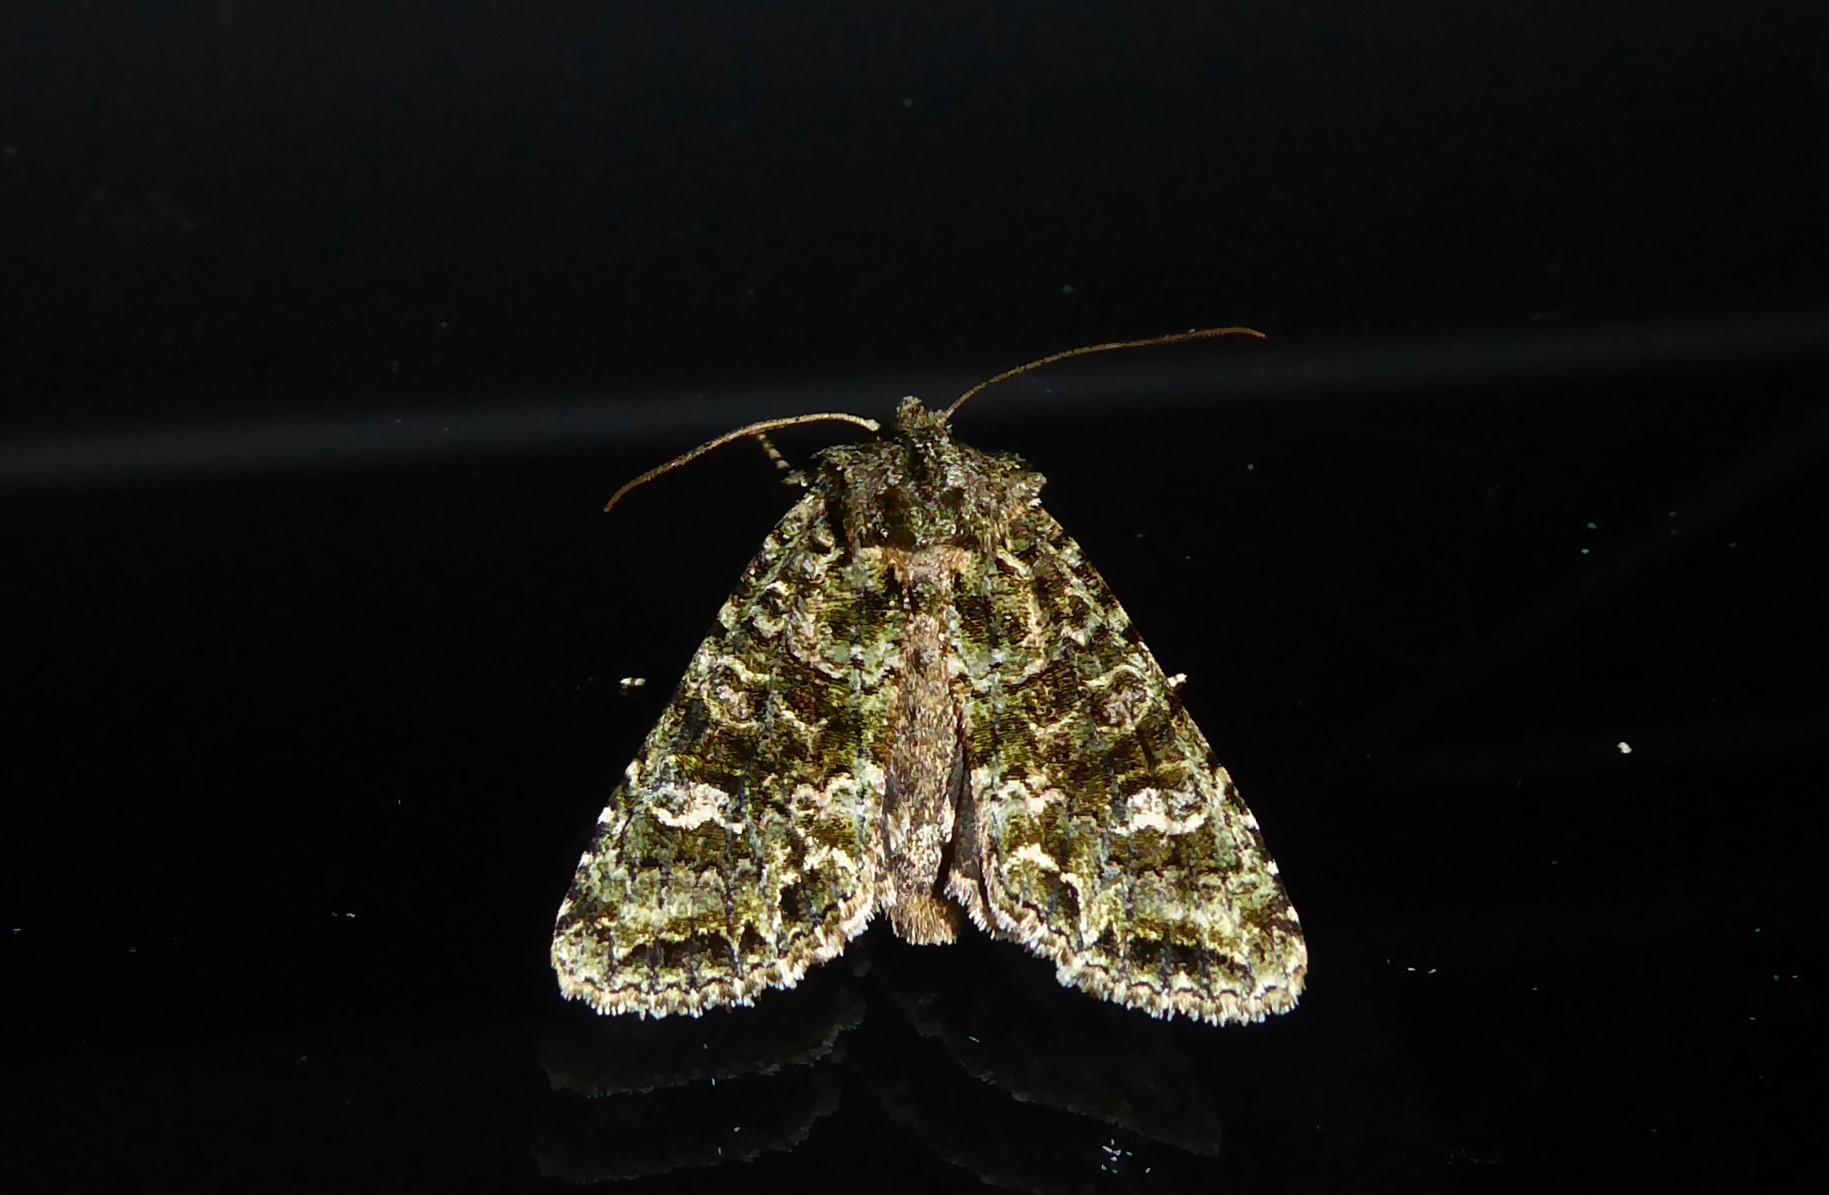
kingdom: Animalia
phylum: Arthropoda
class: Insecta
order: Lepidoptera
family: Noctuidae
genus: Ichneutica
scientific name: Ichneutica
